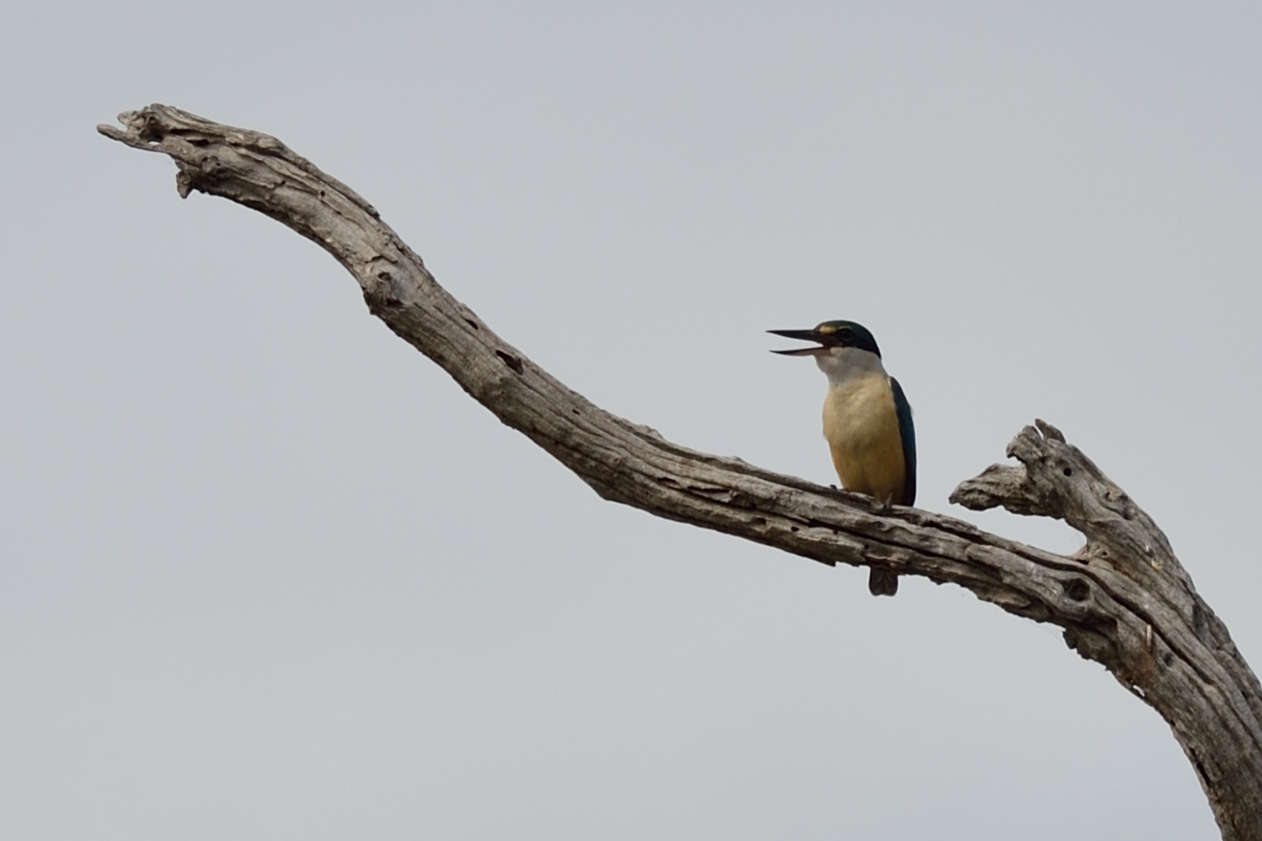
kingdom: Animalia
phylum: Chordata
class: Aves
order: Coraciiformes
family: Alcedinidae
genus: Todiramphus
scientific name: Todiramphus sanctus
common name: Sacred kingfisher
